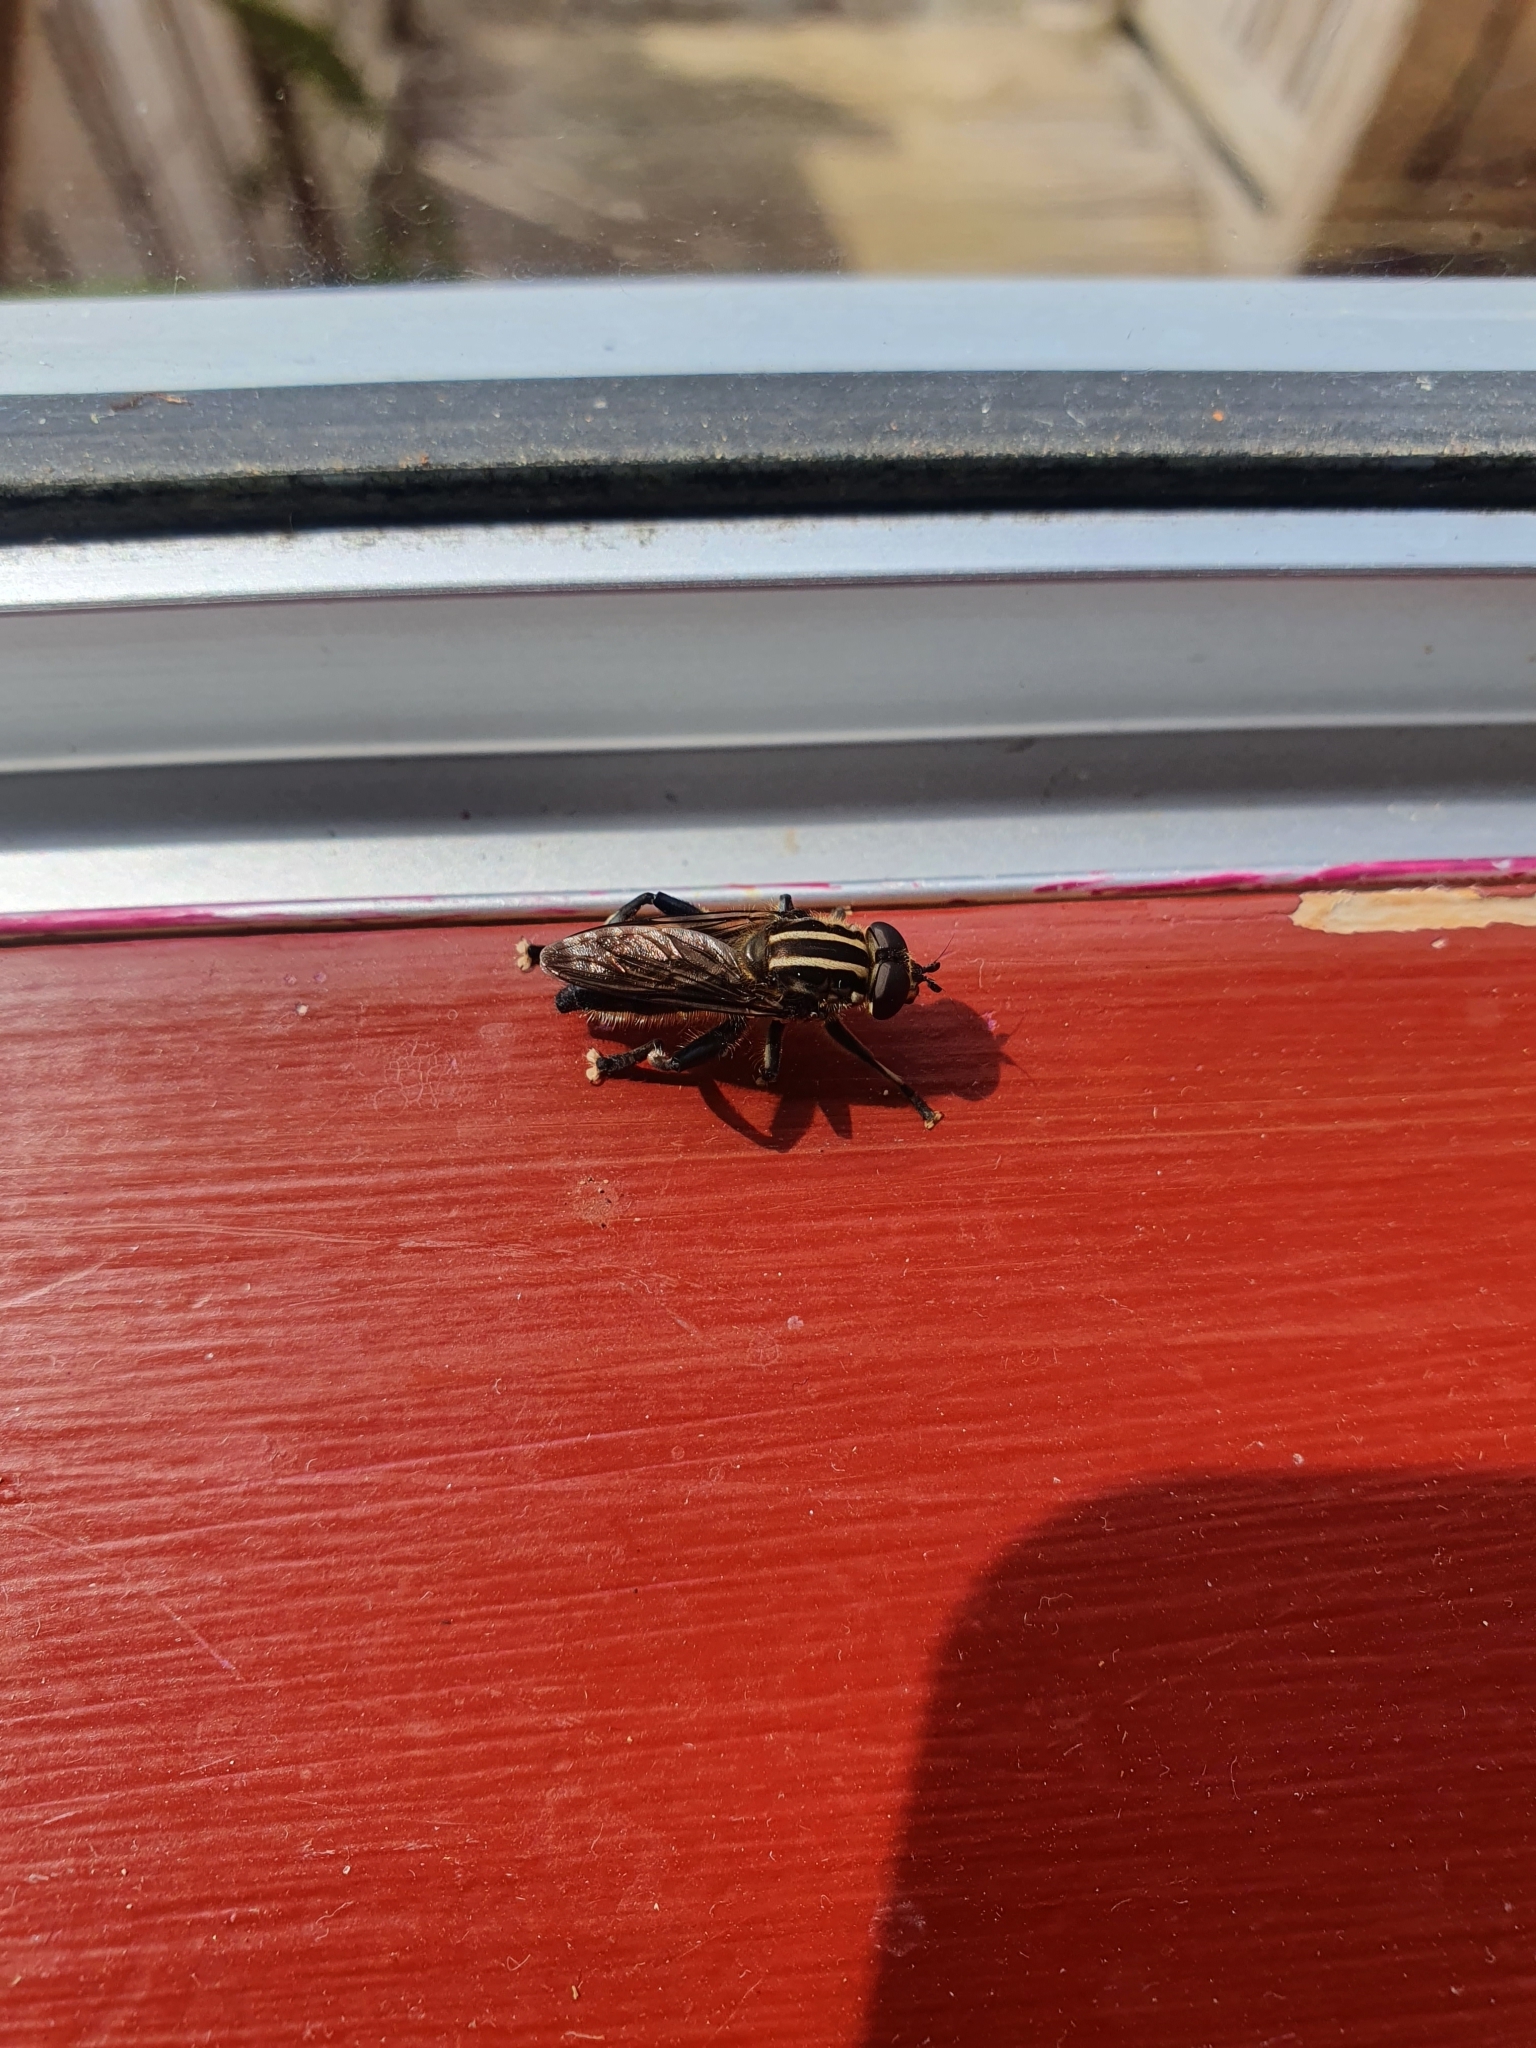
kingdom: Animalia
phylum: Arthropoda
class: Insecta
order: Diptera
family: Syrphidae
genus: Helophilus
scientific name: Helophilus antipodus
